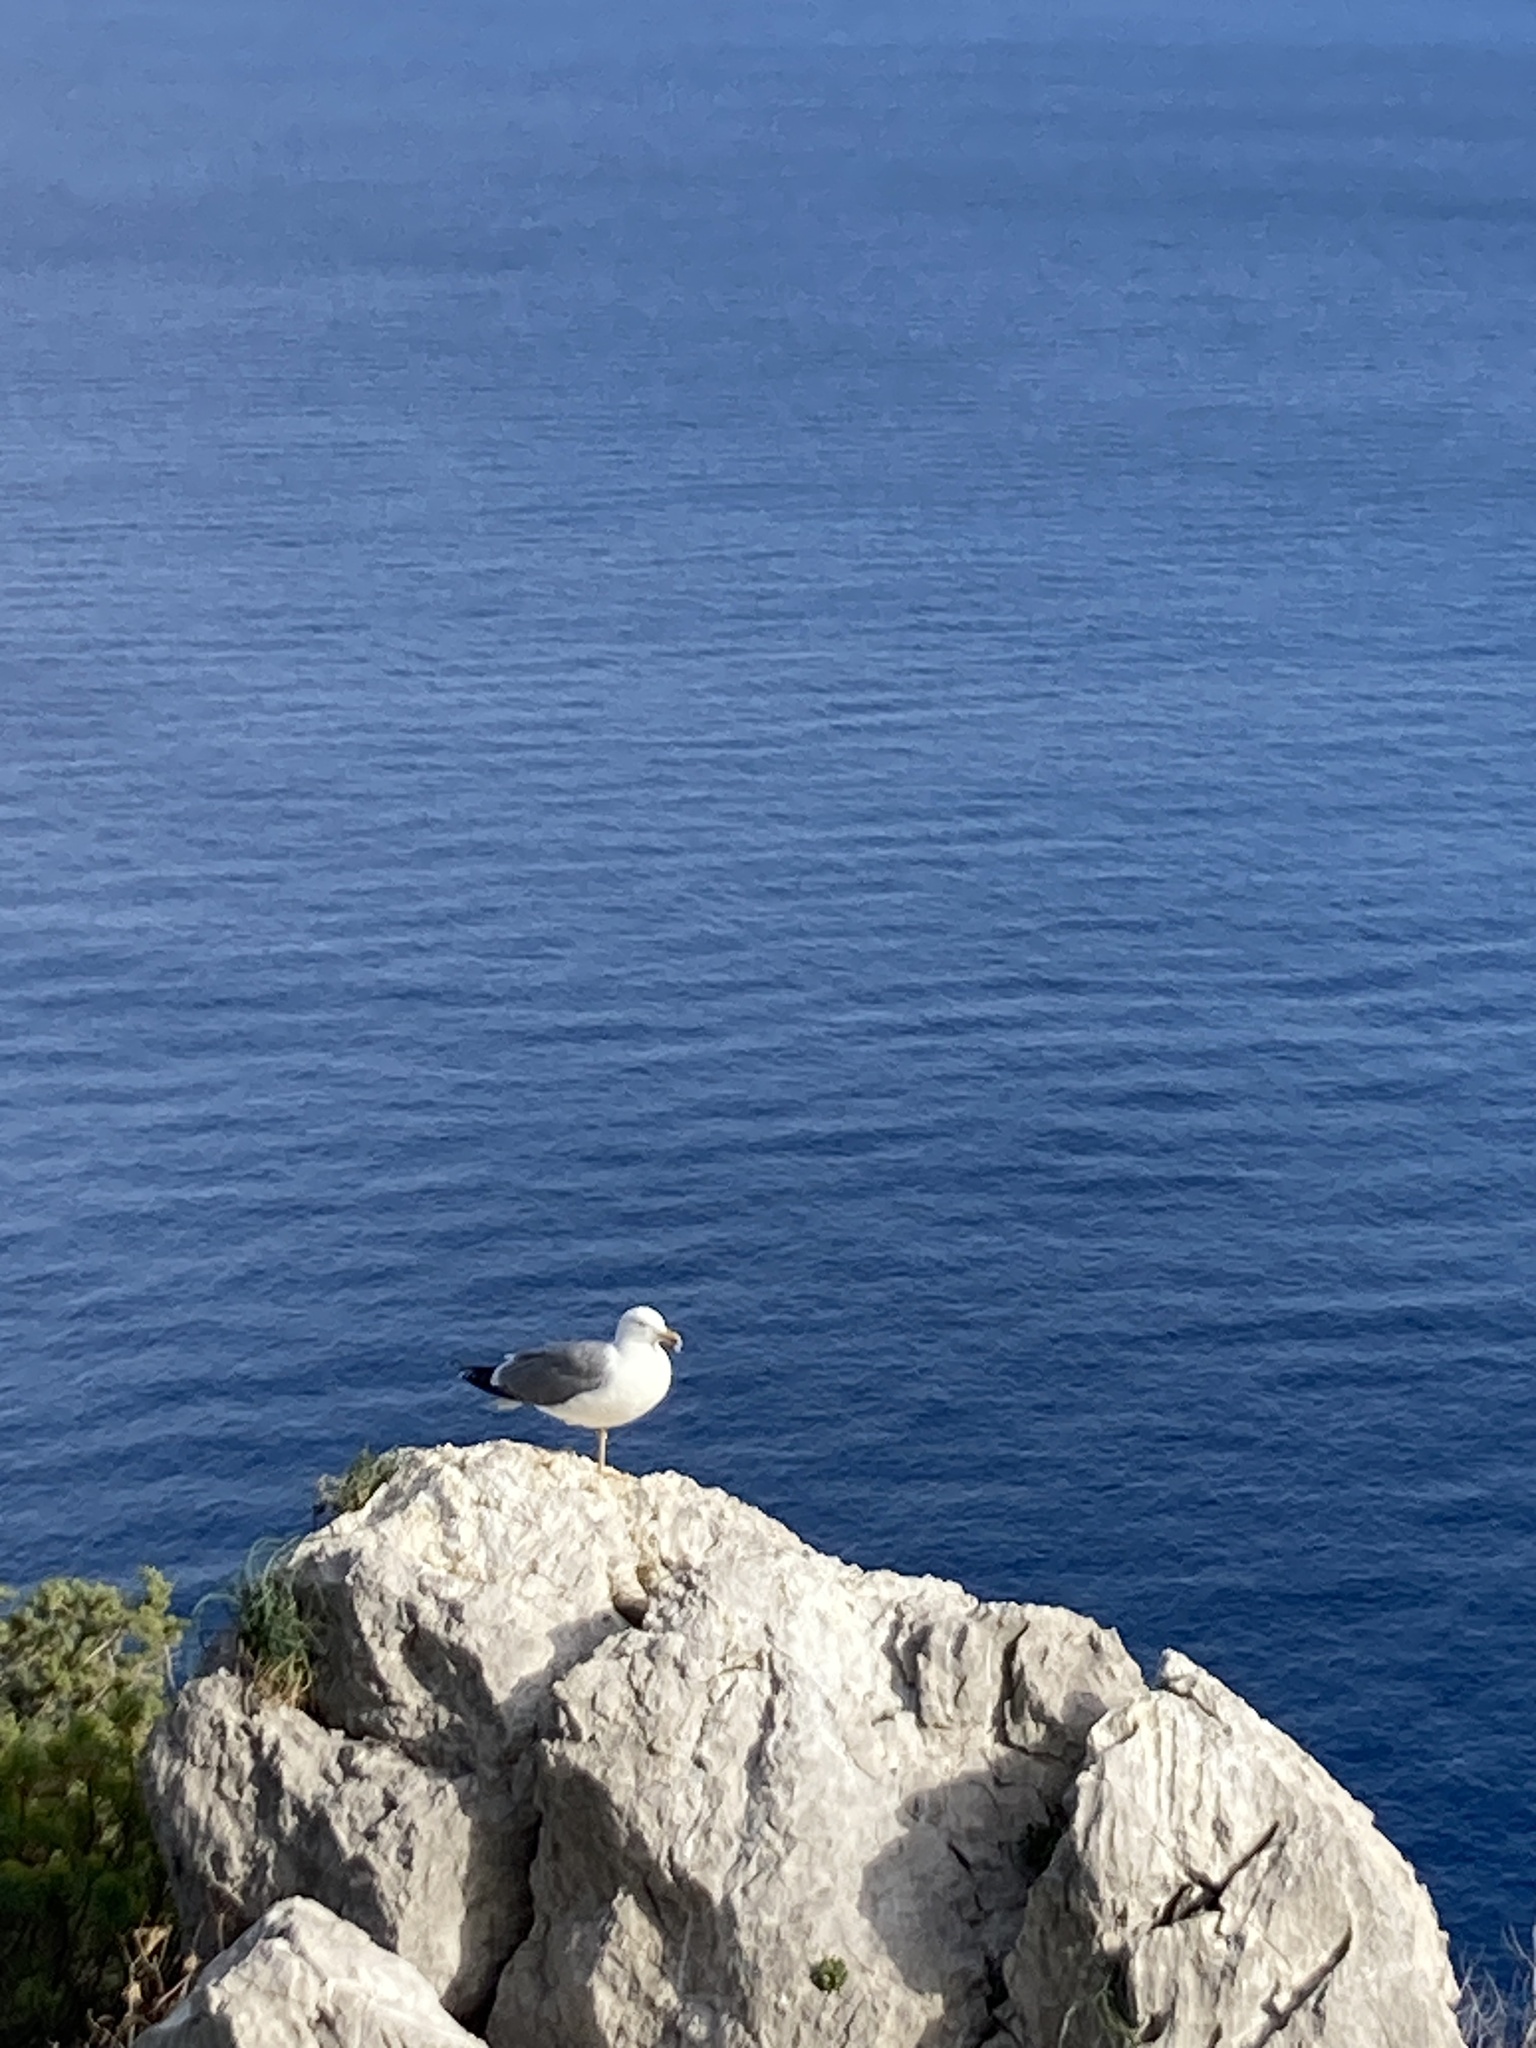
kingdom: Animalia
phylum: Chordata
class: Aves
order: Charadriiformes
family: Laridae
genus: Larus
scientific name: Larus michahellis
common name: Yellow-legged gull
